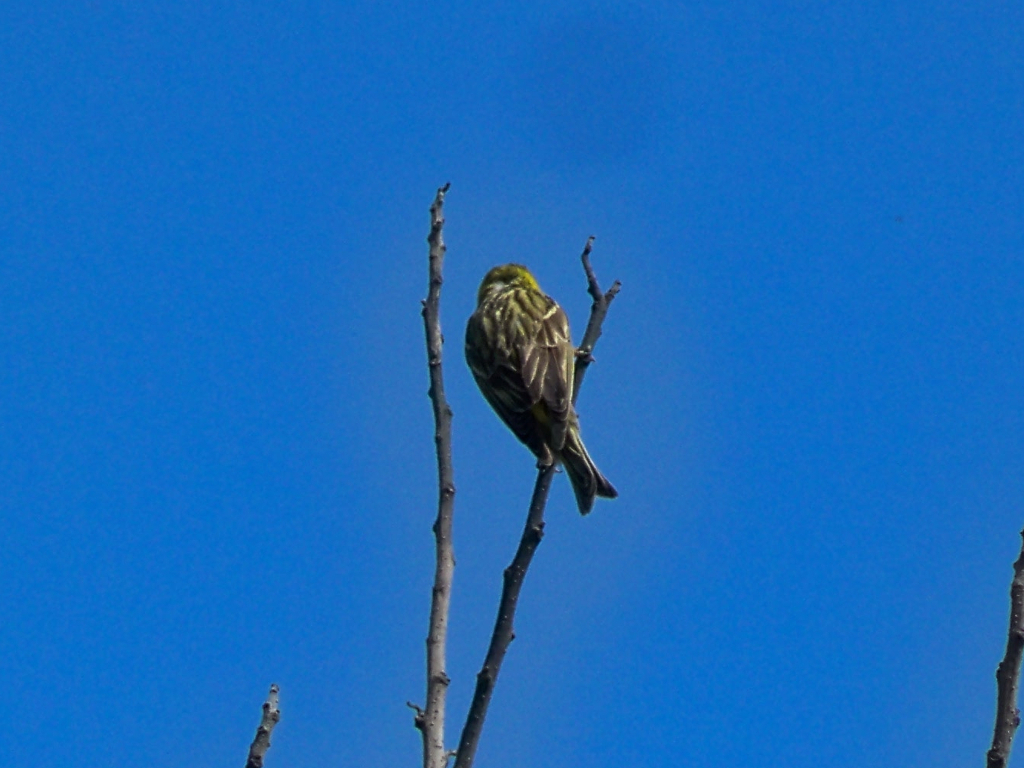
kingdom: Animalia
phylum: Chordata
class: Aves
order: Passeriformes
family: Fringillidae
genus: Serinus
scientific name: Serinus serinus
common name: European serin
